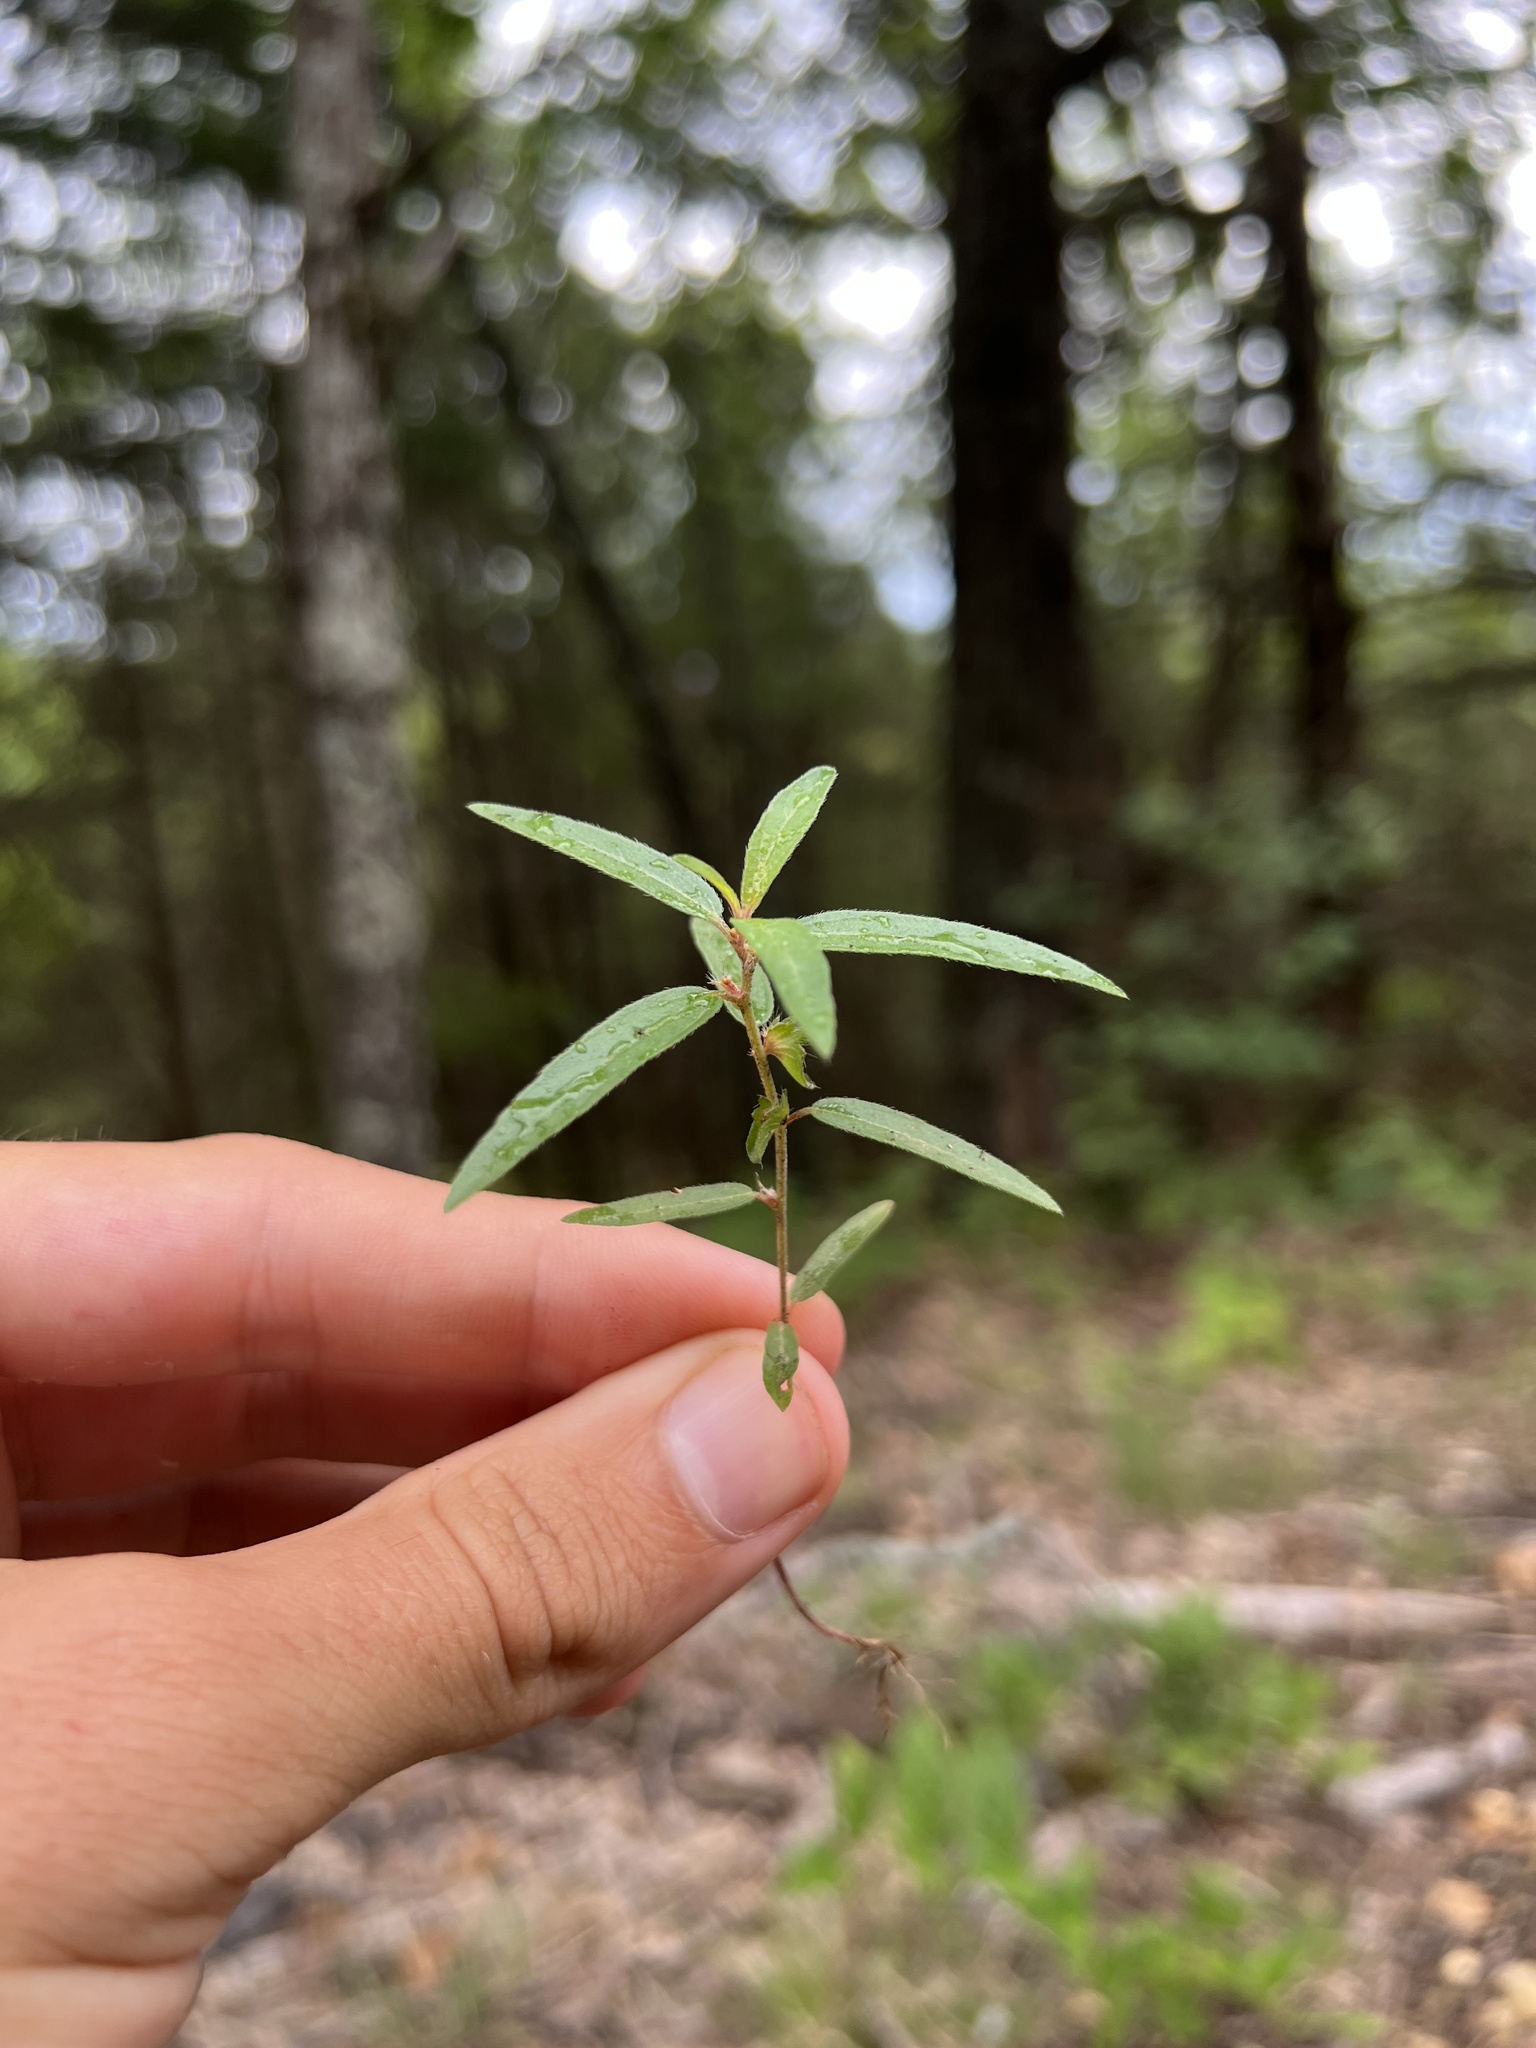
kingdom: Plantae
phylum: Tracheophyta
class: Magnoliopsida
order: Malpighiales
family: Euphorbiaceae
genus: Acalypha
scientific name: Acalypha monococca
